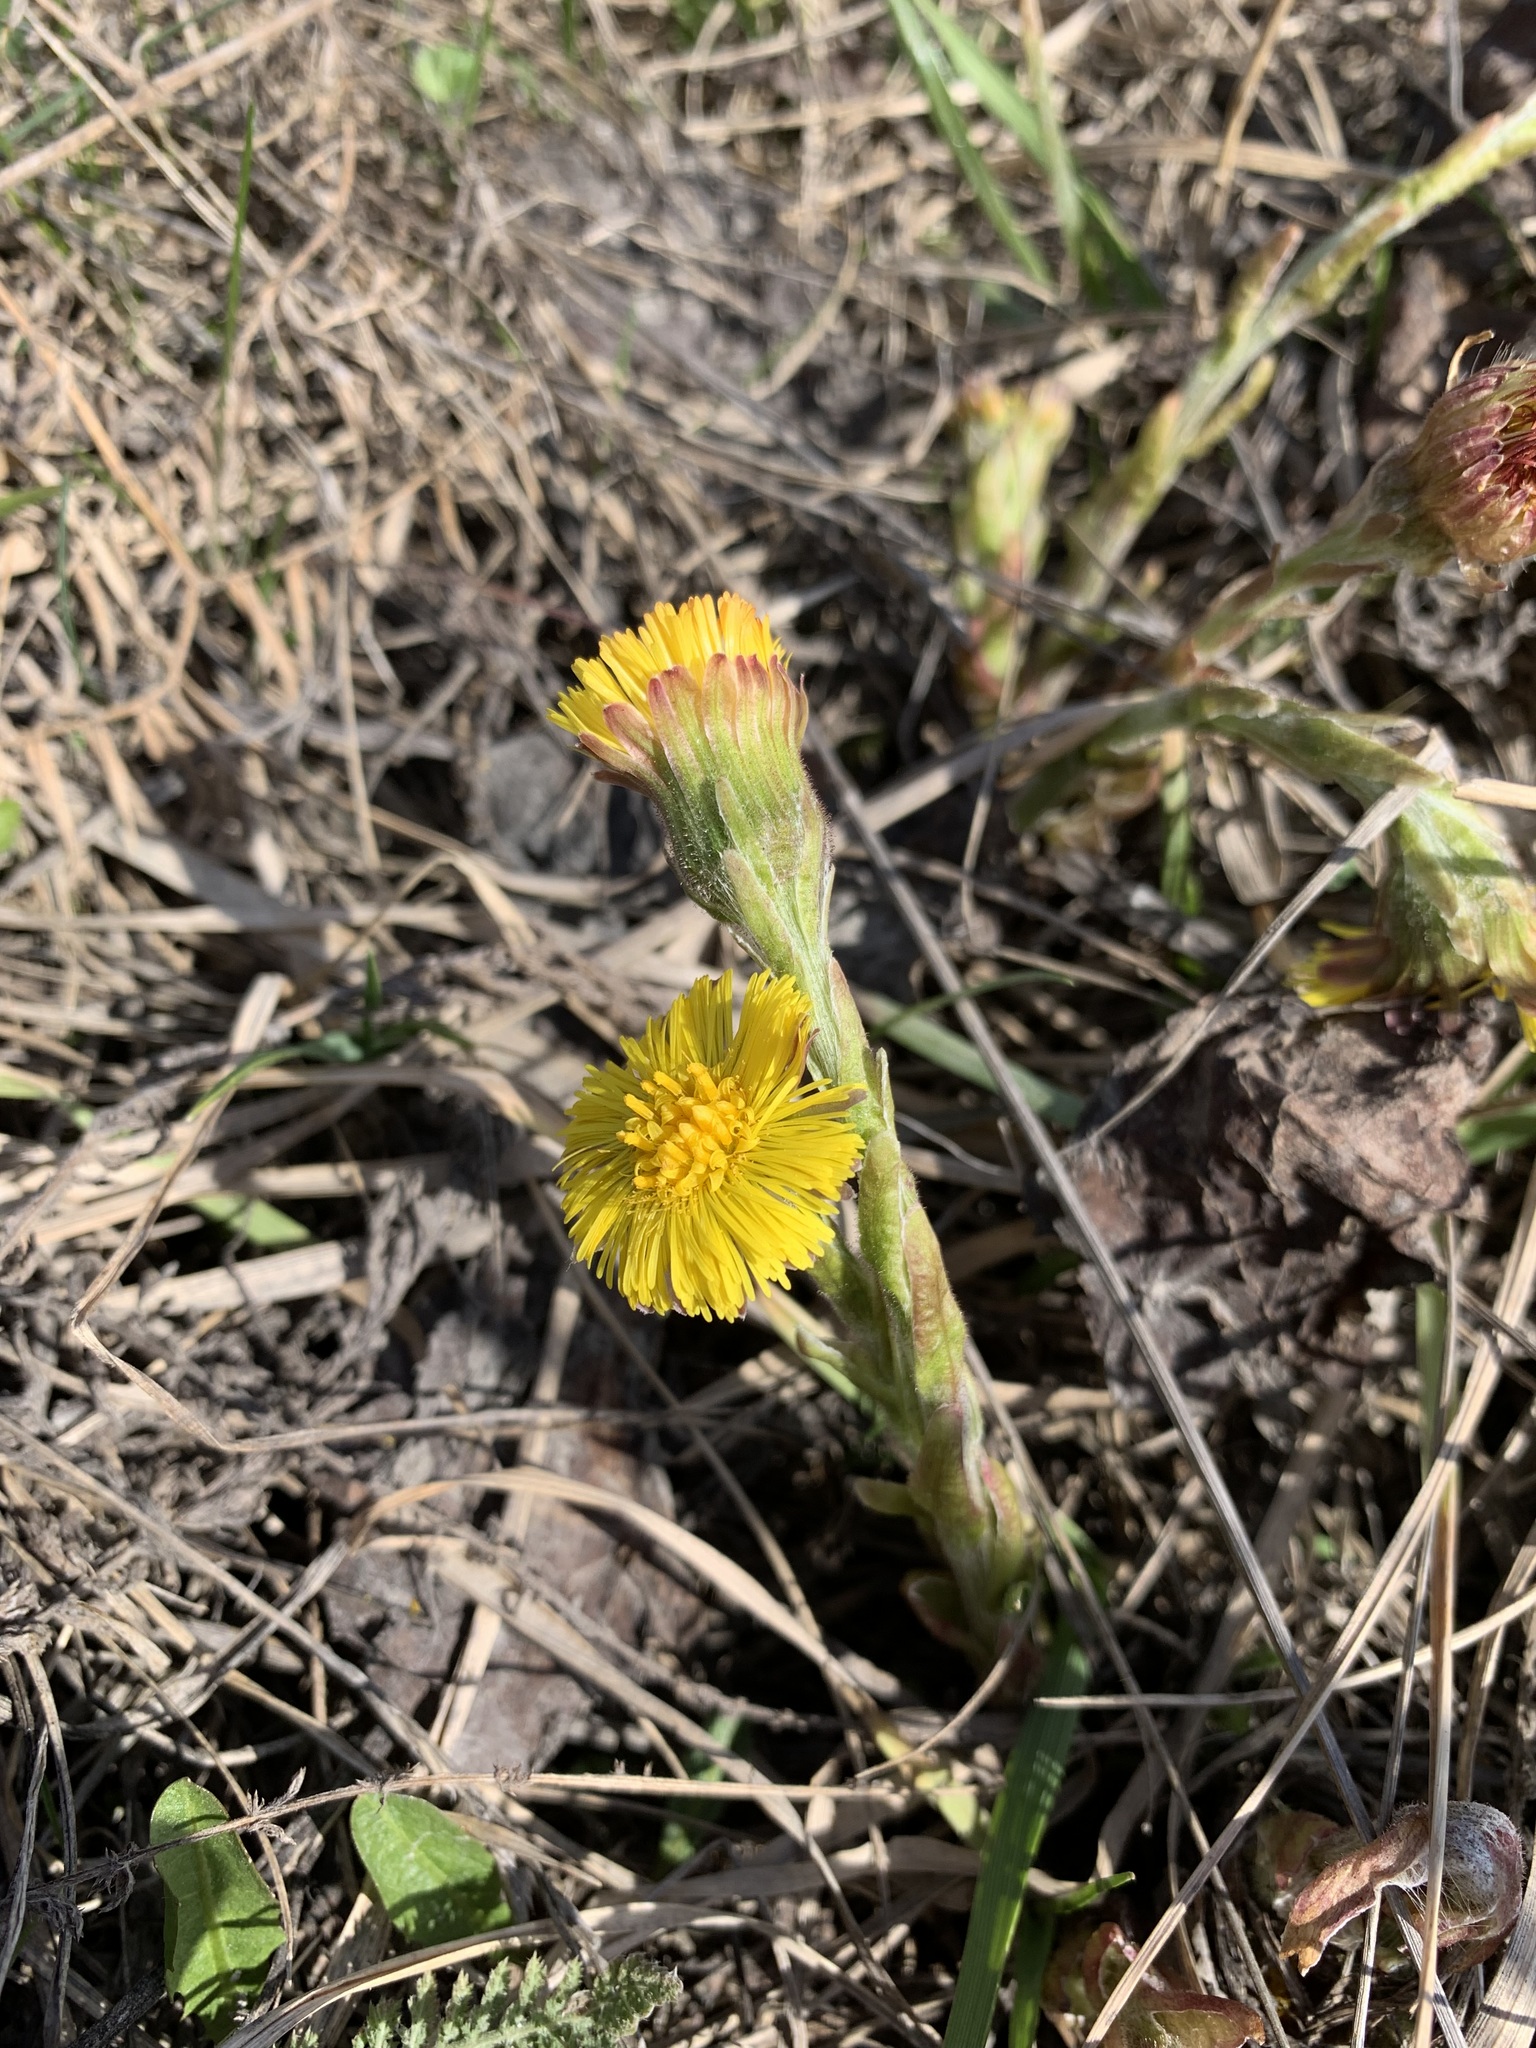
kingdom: Plantae
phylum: Tracheophyta
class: Magnoliopsida
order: Asterales
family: Asteraceae
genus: Tussilago
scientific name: Tussilago farfara
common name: Coltsfoot
